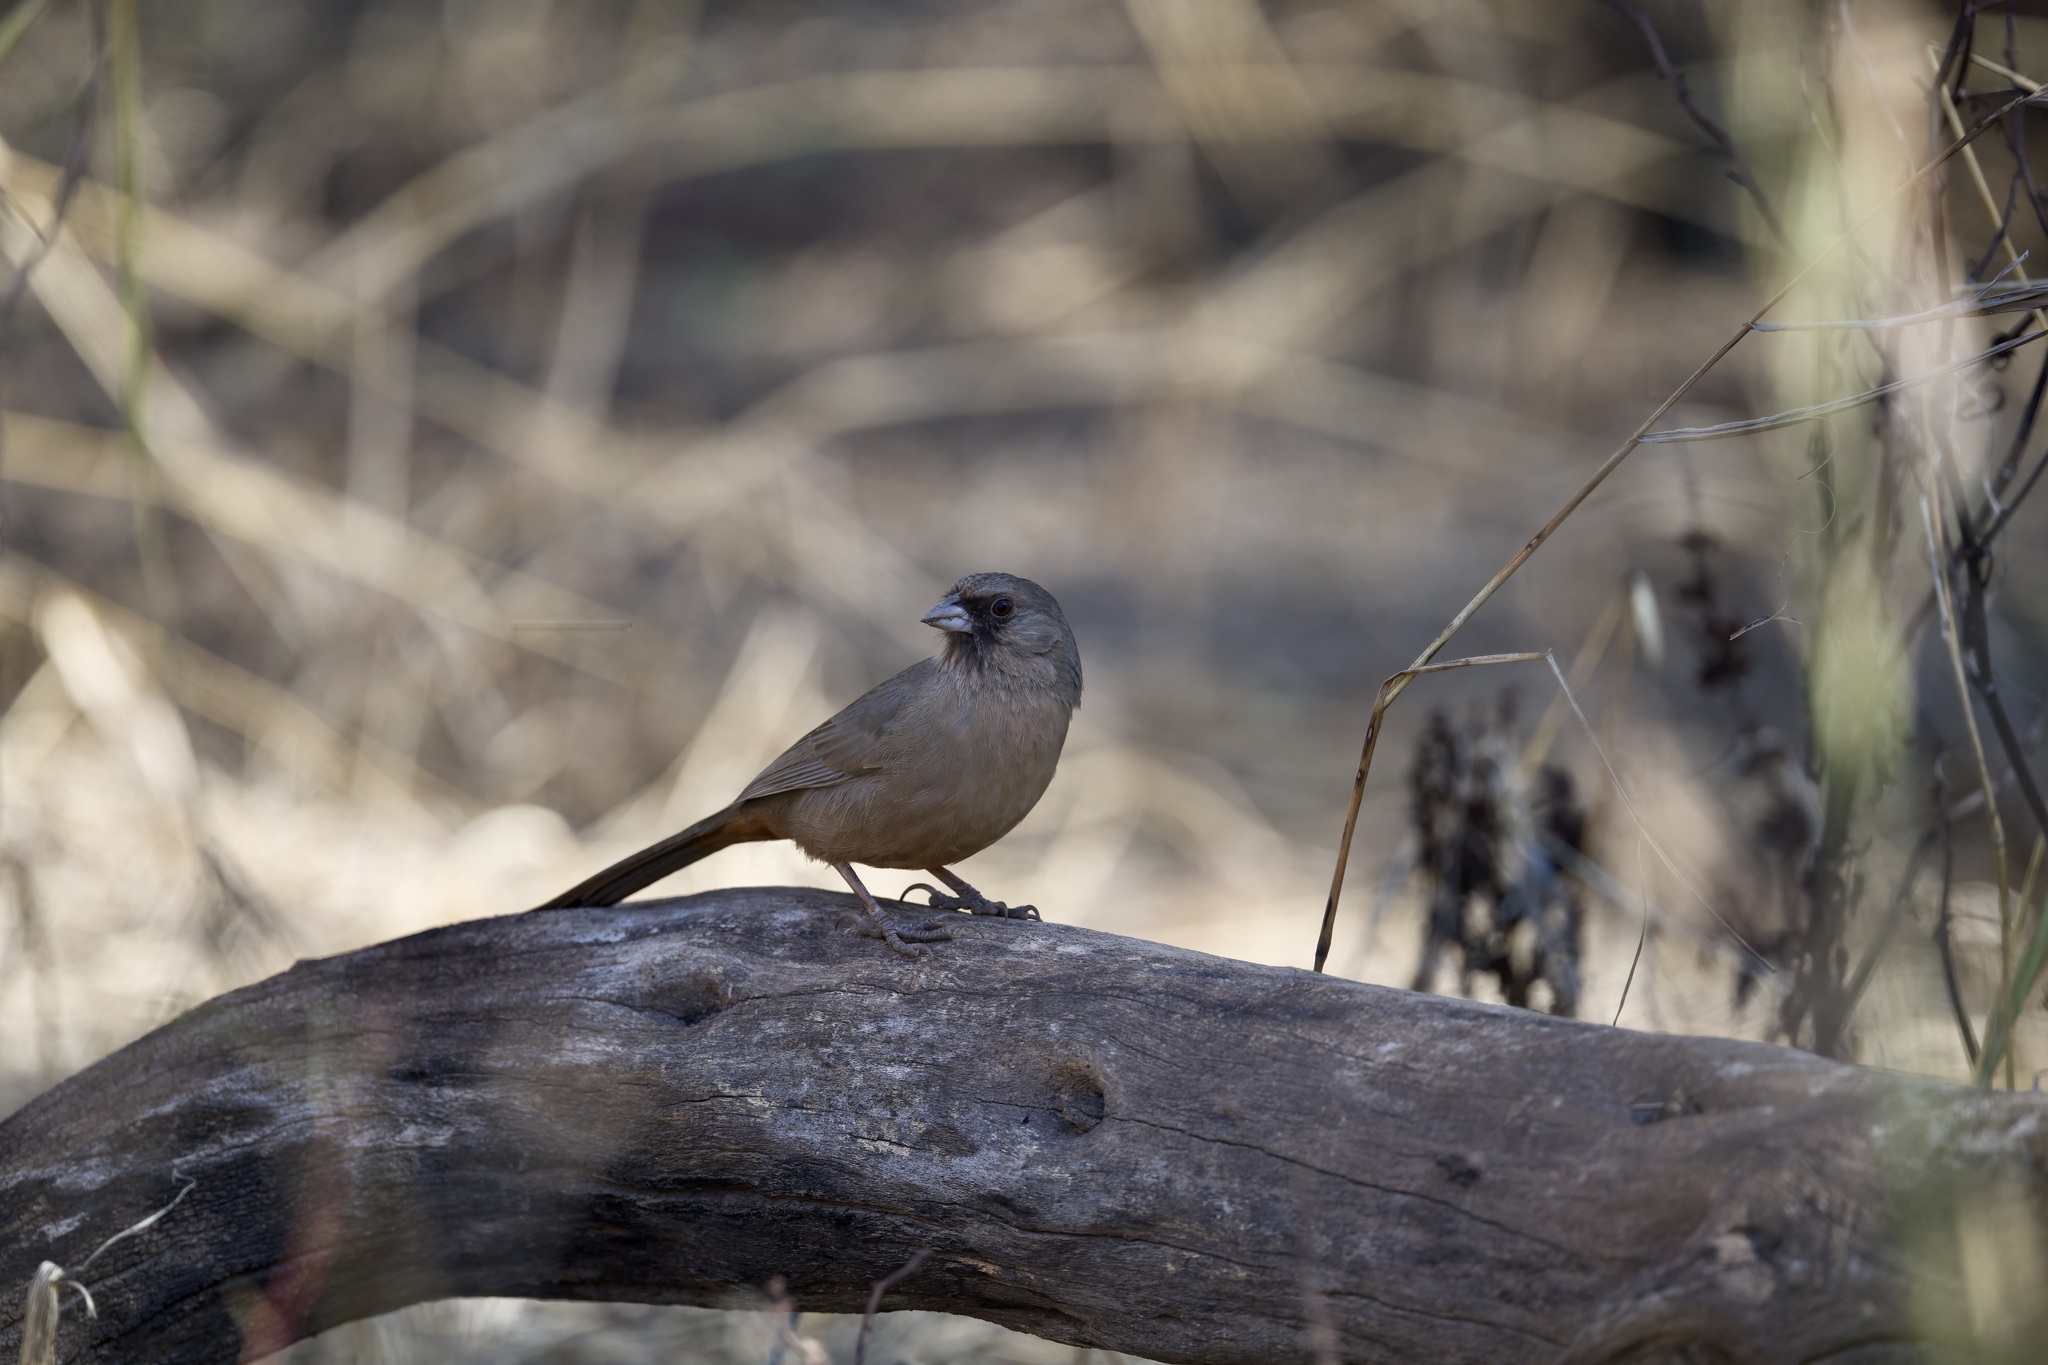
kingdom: Animalia
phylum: Chordata
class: Aves
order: Passeriformes
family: Passerellidae
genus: Melozone
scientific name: Melozone aberti
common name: Abert's towhee
